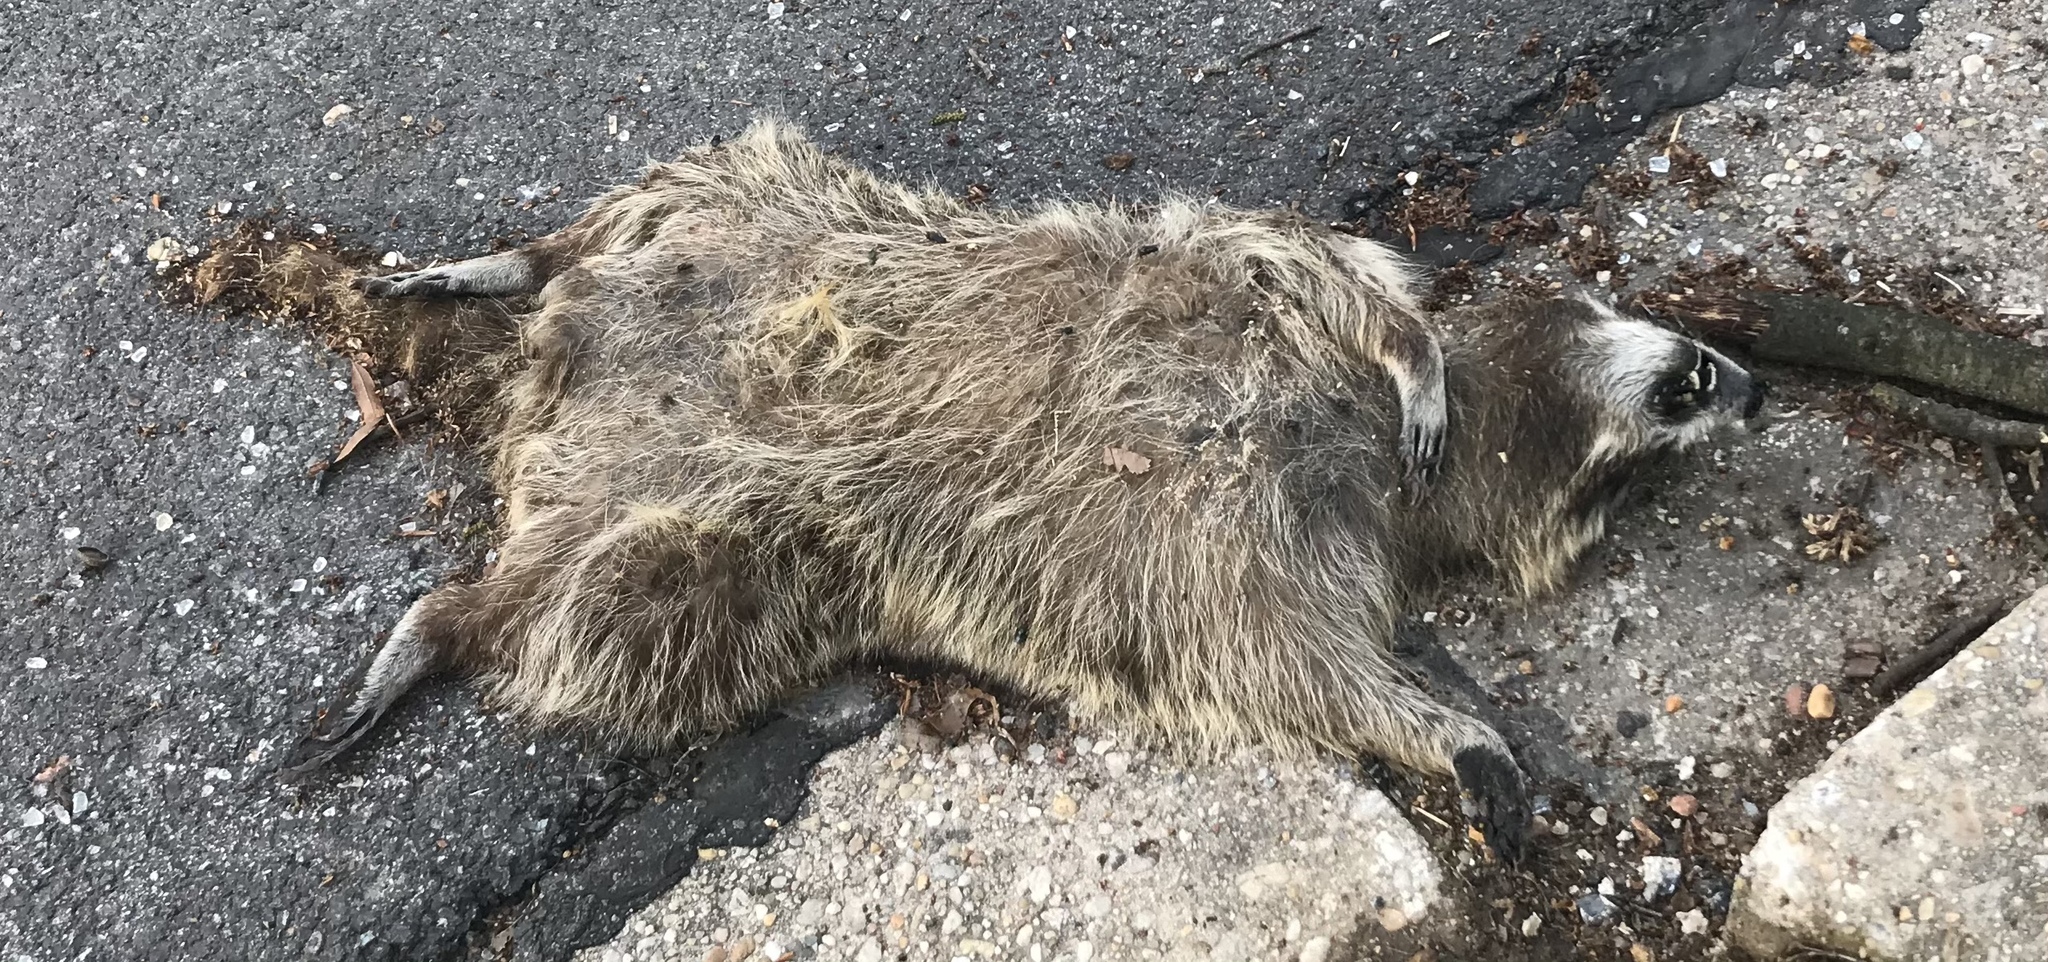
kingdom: Animalia
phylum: Chordata
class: Mammalia
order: Carnivora
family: Procyonidae
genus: Procyon
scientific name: Procyon lotor
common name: Raccoon
